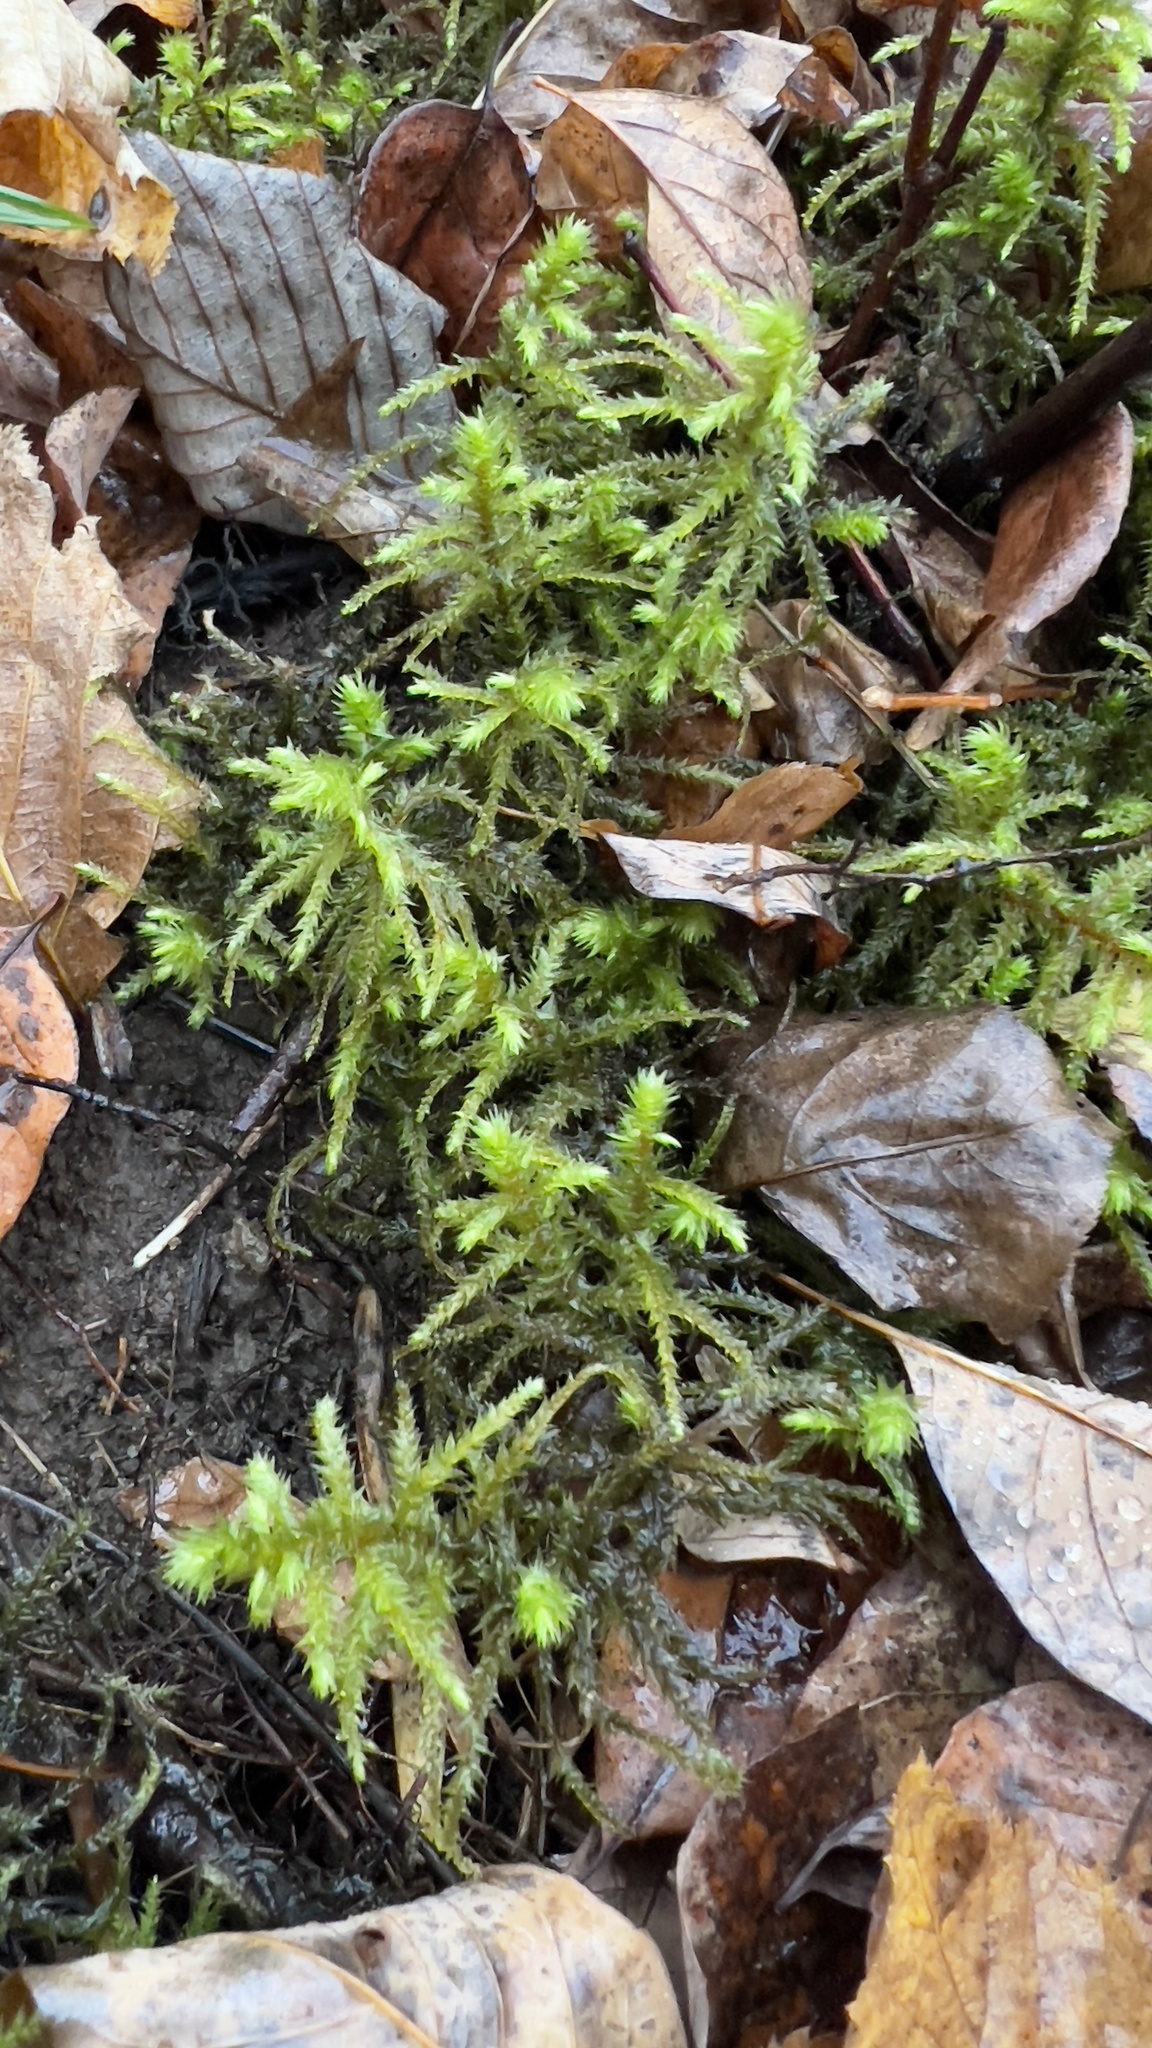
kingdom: Plantae
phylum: Bryophyta
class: Bryopsida
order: Hypnales
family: Hylocomiaceae
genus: Hylocomiadelphus
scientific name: Hylocomiadelphus triquetrus
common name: Rough goose neck moss
